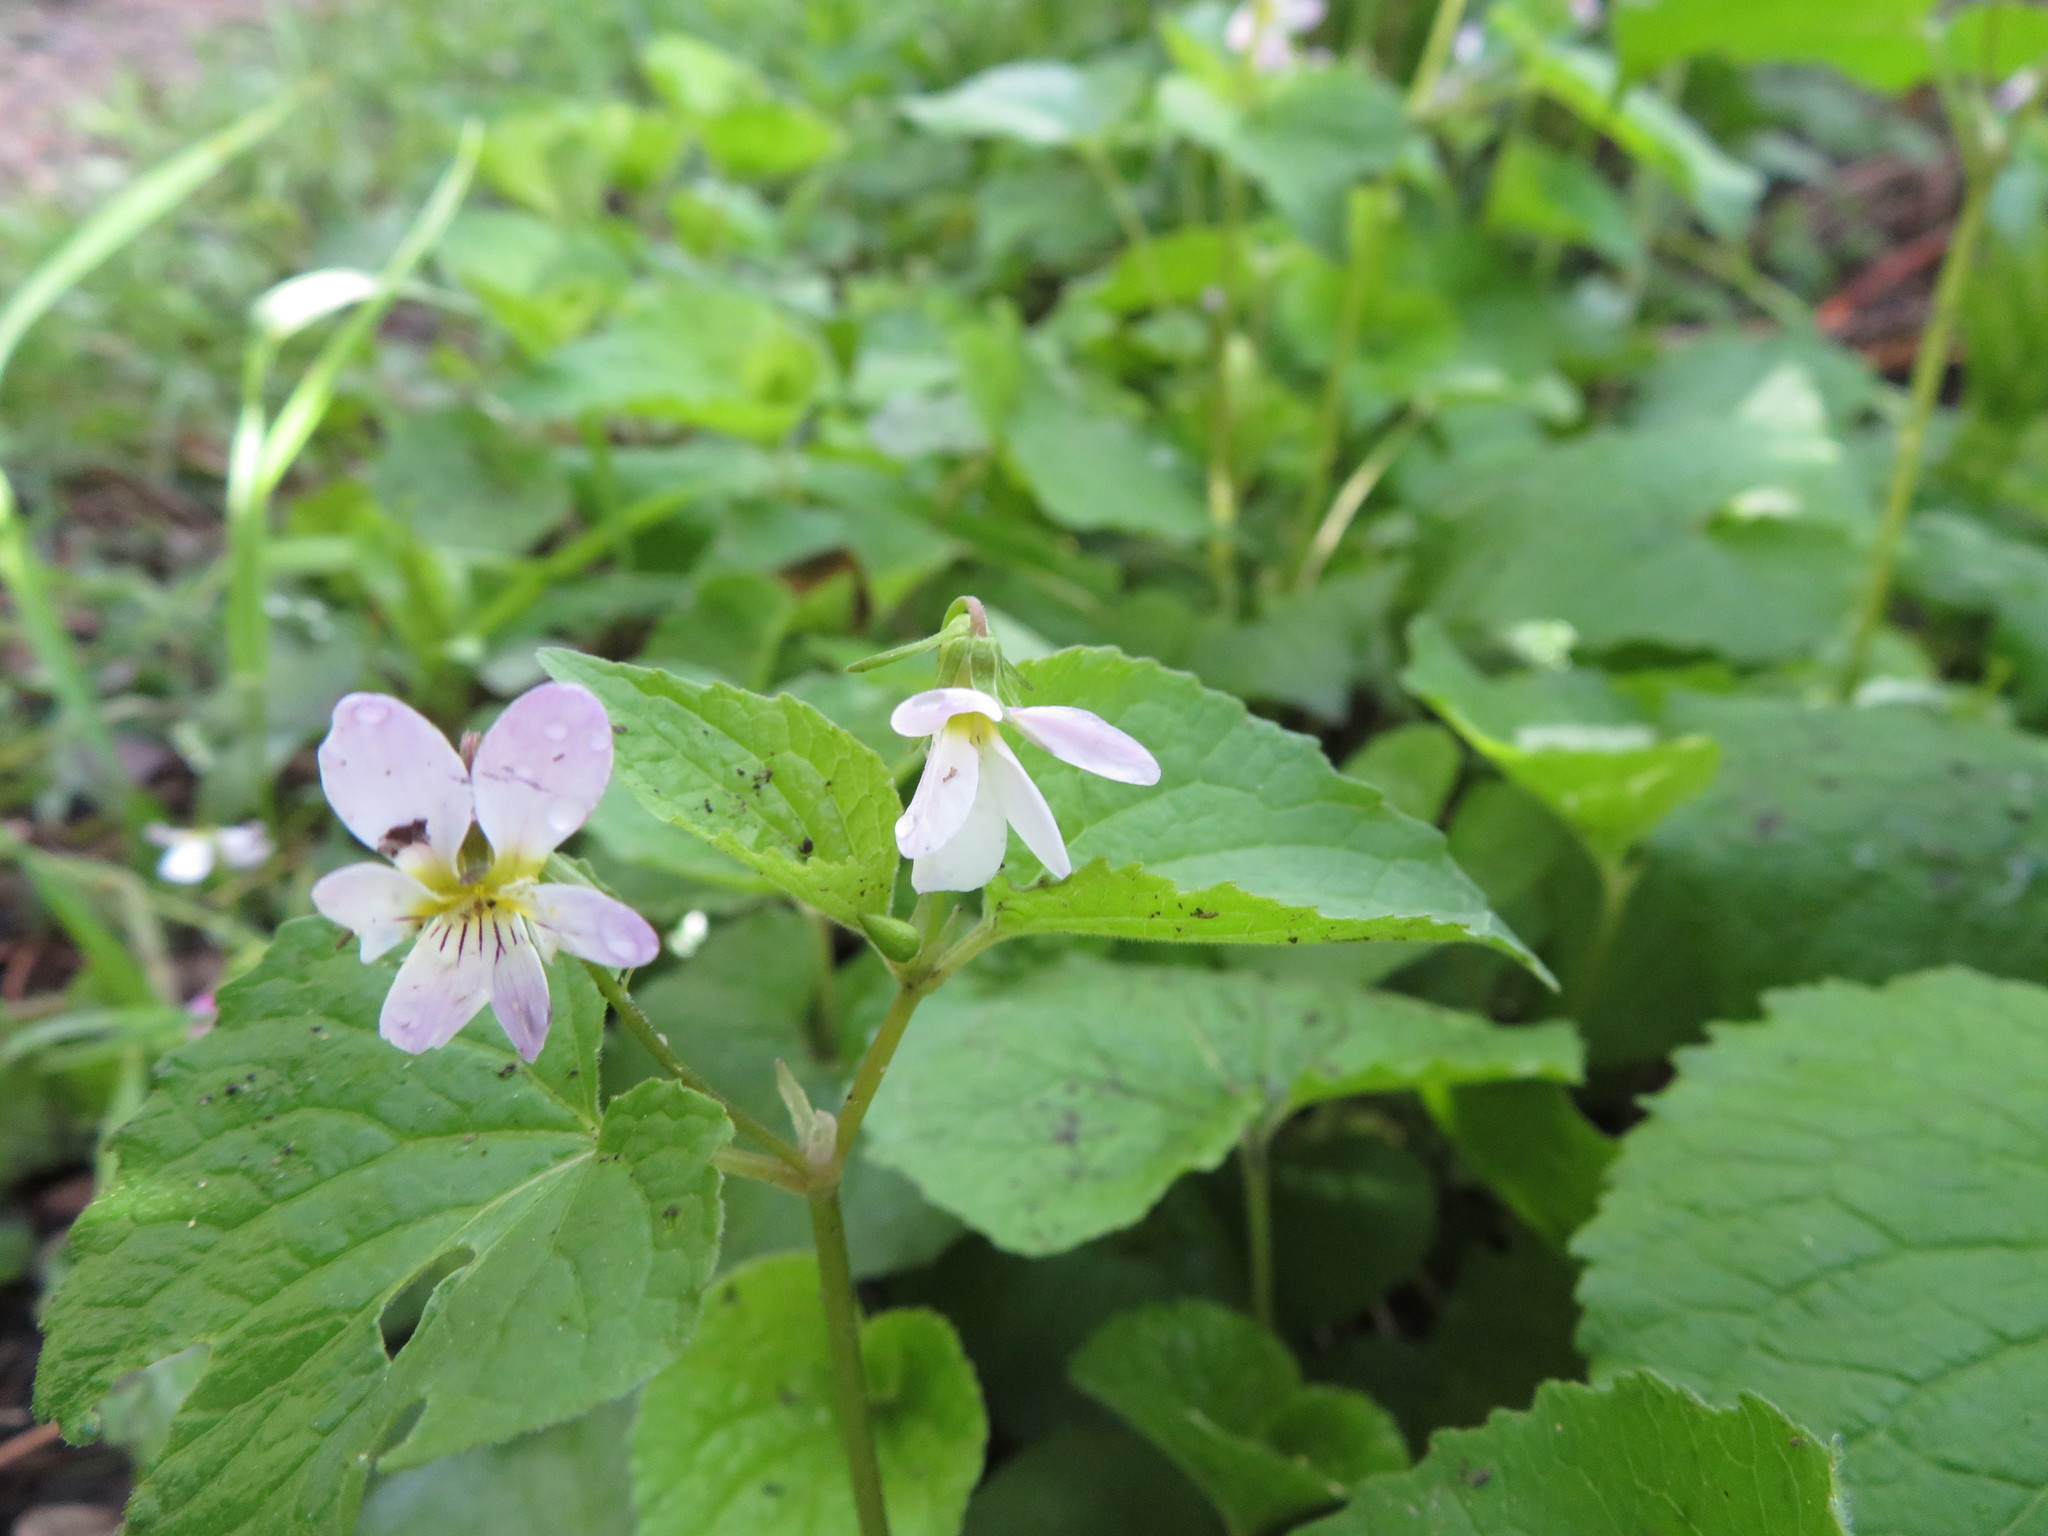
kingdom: Plantae
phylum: Tracheophyta
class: Magnoliopsida
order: Malpighiales
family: Violaceae
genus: Viola
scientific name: Viola canadensis
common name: Canada violet
